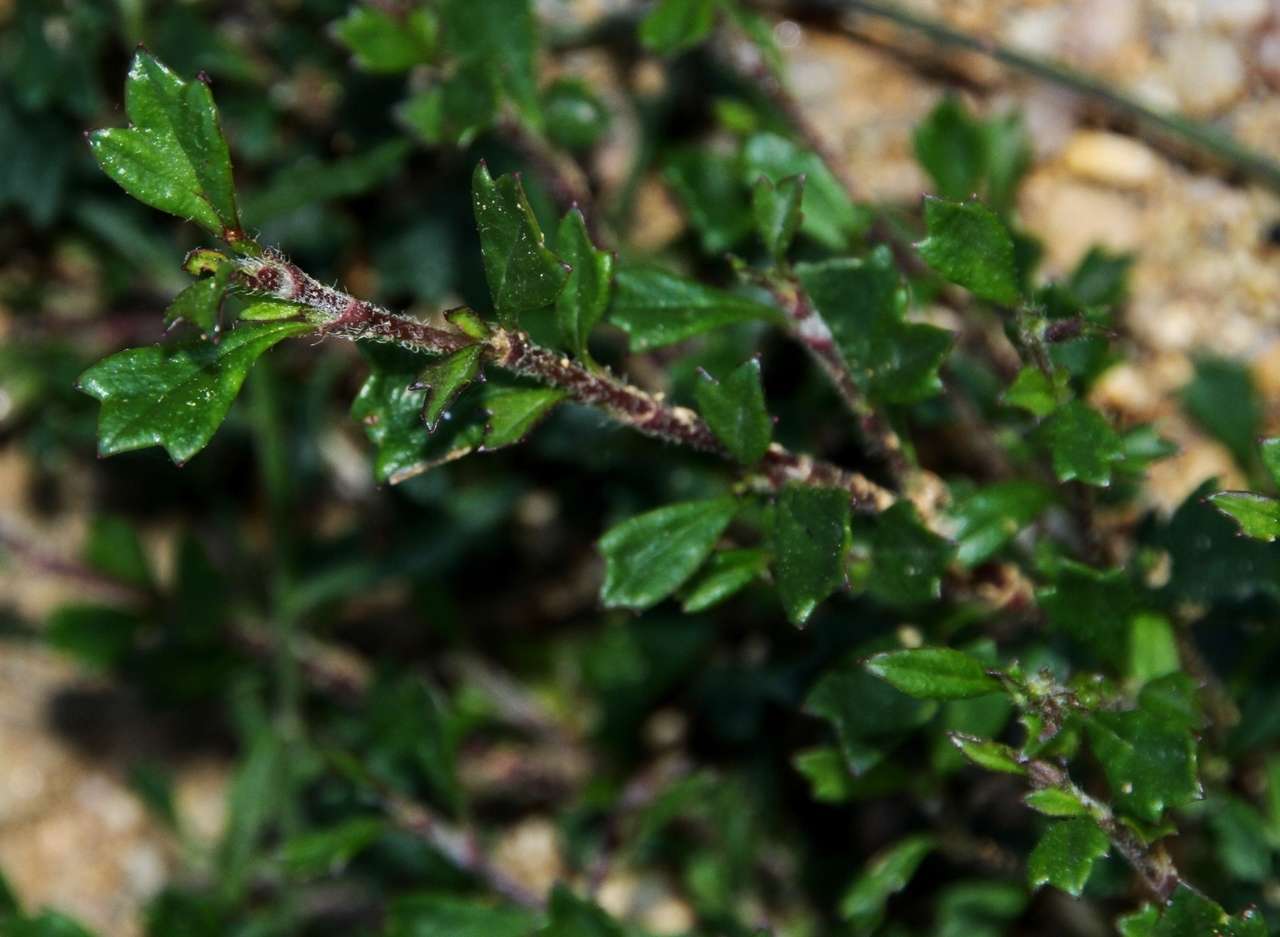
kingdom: Plantae
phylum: Tracheophyta
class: Magnoliopsida
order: Apiales
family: Apiaceae
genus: Xanthosia
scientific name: Xanthosia tridentata
